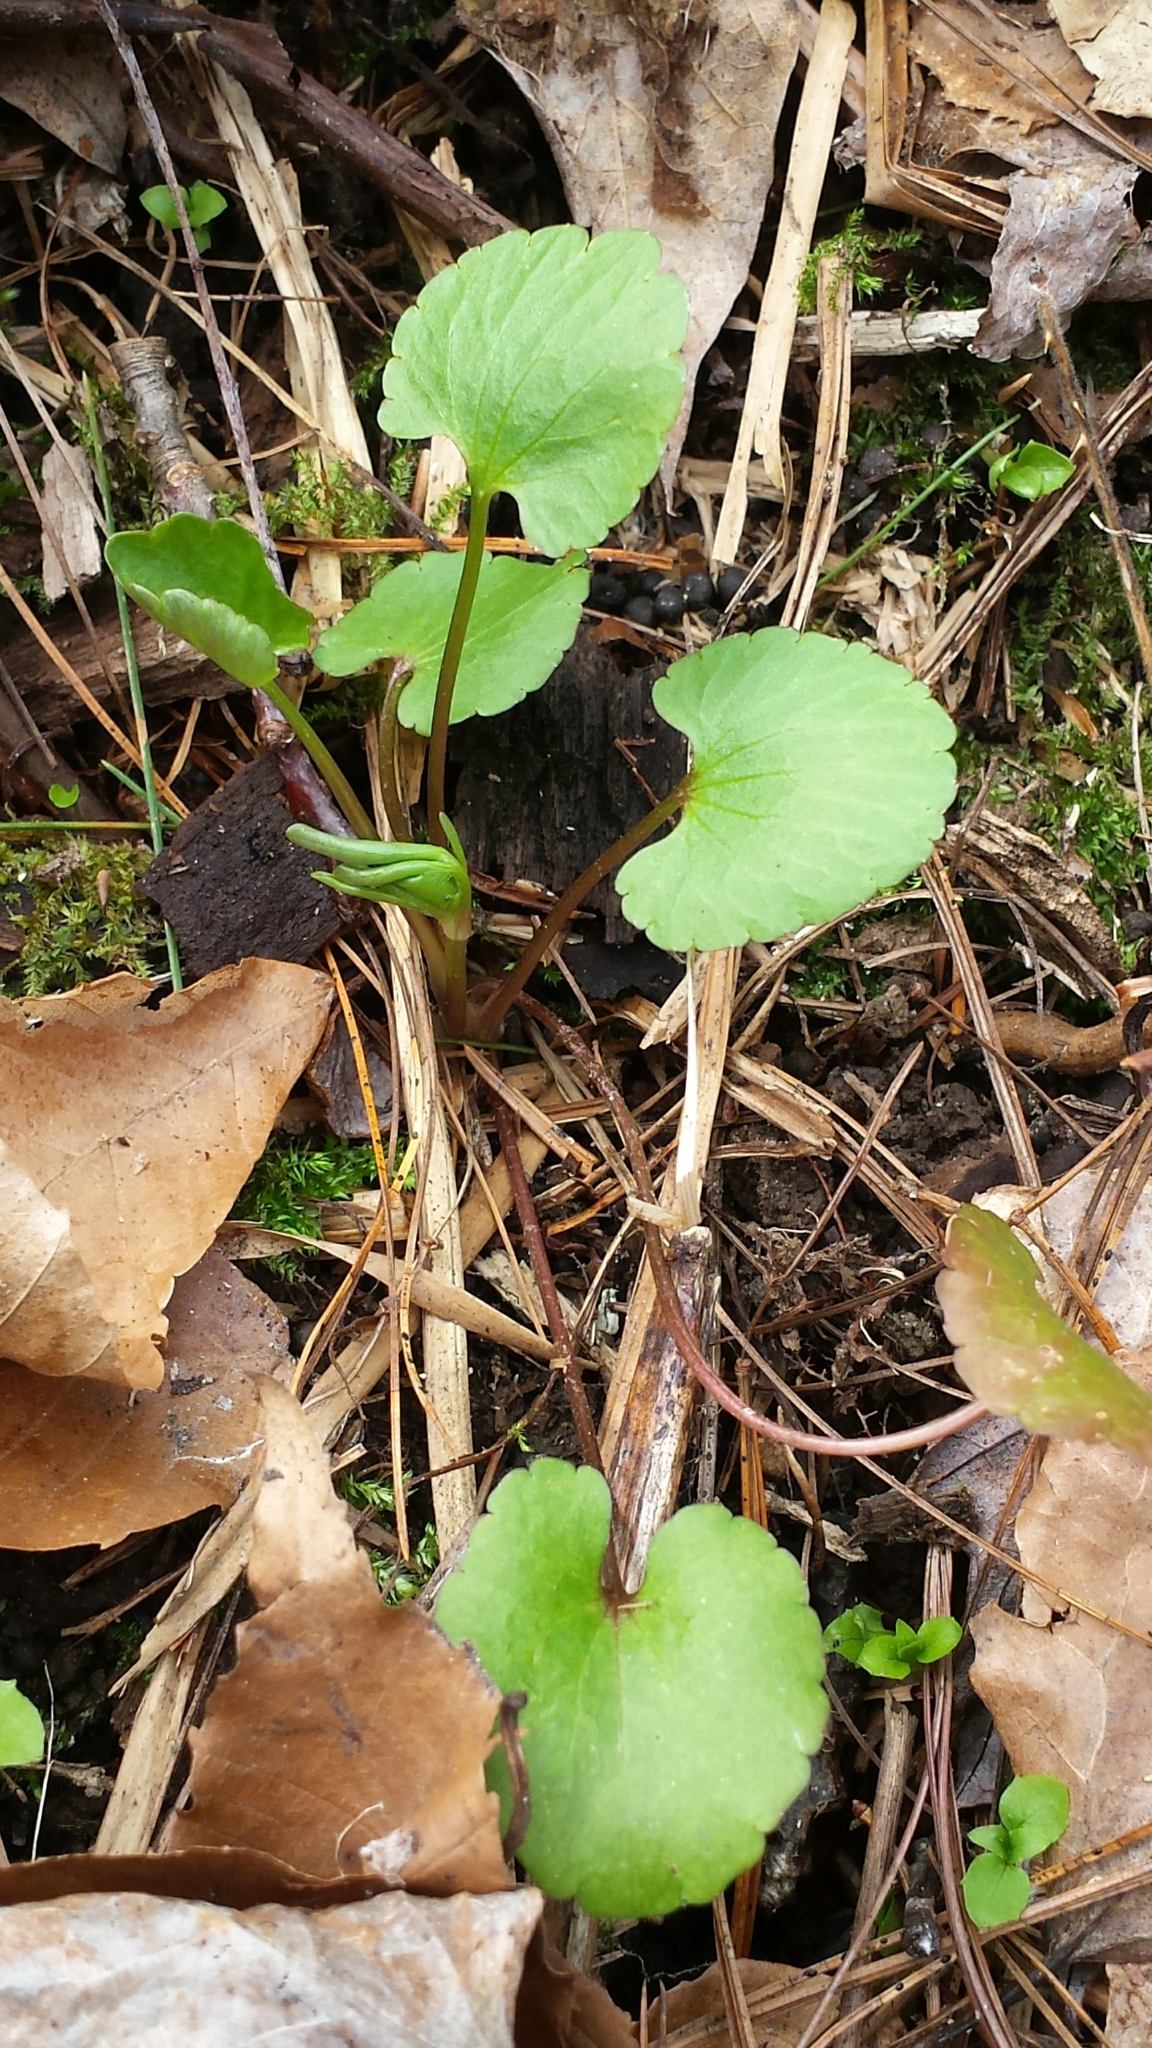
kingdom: Plantae
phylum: Tracheophyta
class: Magnoliopsida
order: Ranunculales
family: Ranunculaceae
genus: Ranunculus
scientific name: Ranunculus abortivus
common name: Early wood buttercup
